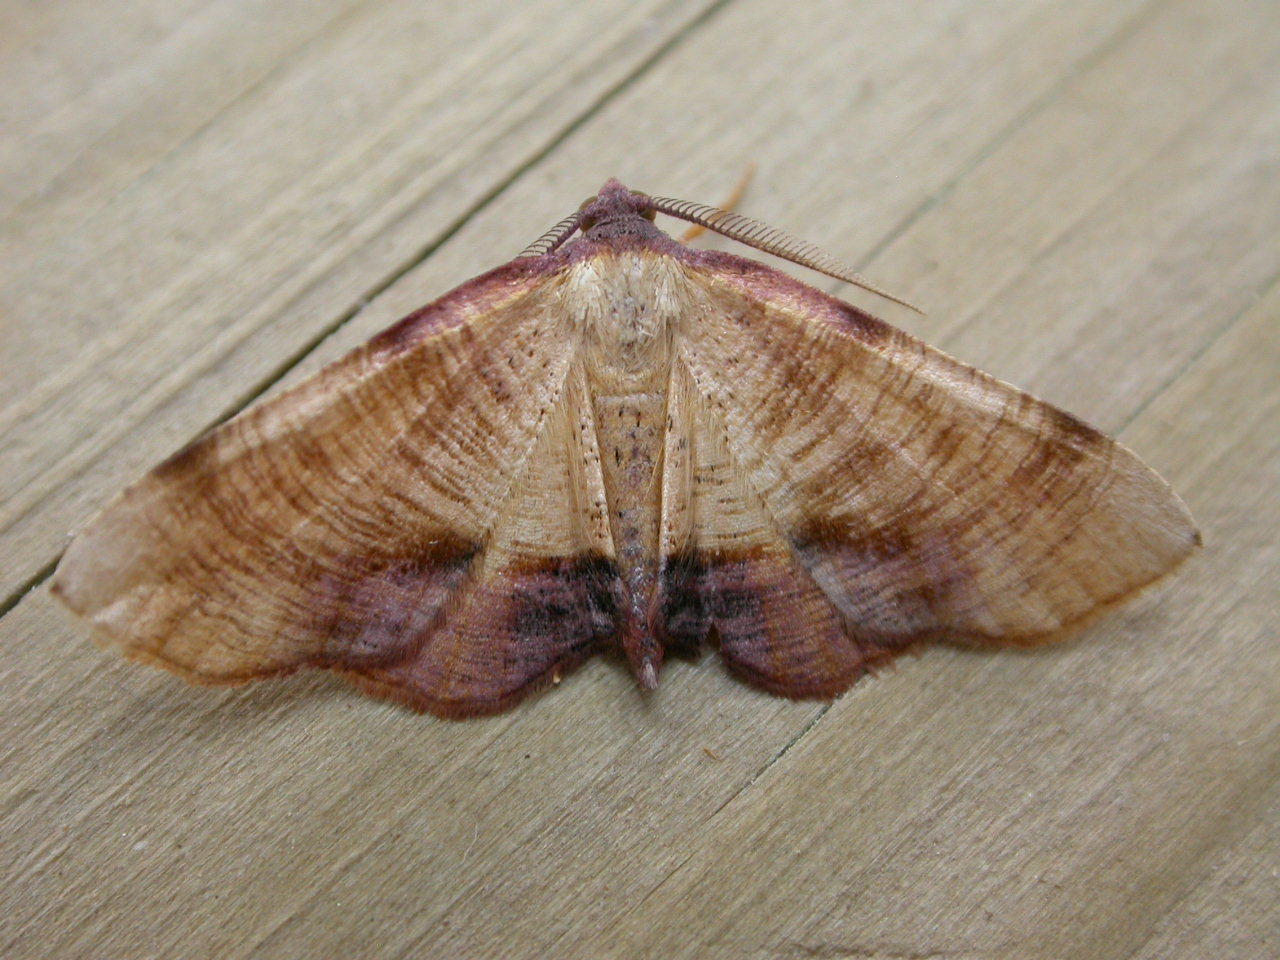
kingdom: Animalia
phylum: Arthropoda
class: Insecta
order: Lepidoptera
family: Geometridae
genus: Plagodis
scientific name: Plagodis dolabraria
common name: Scorched wing
